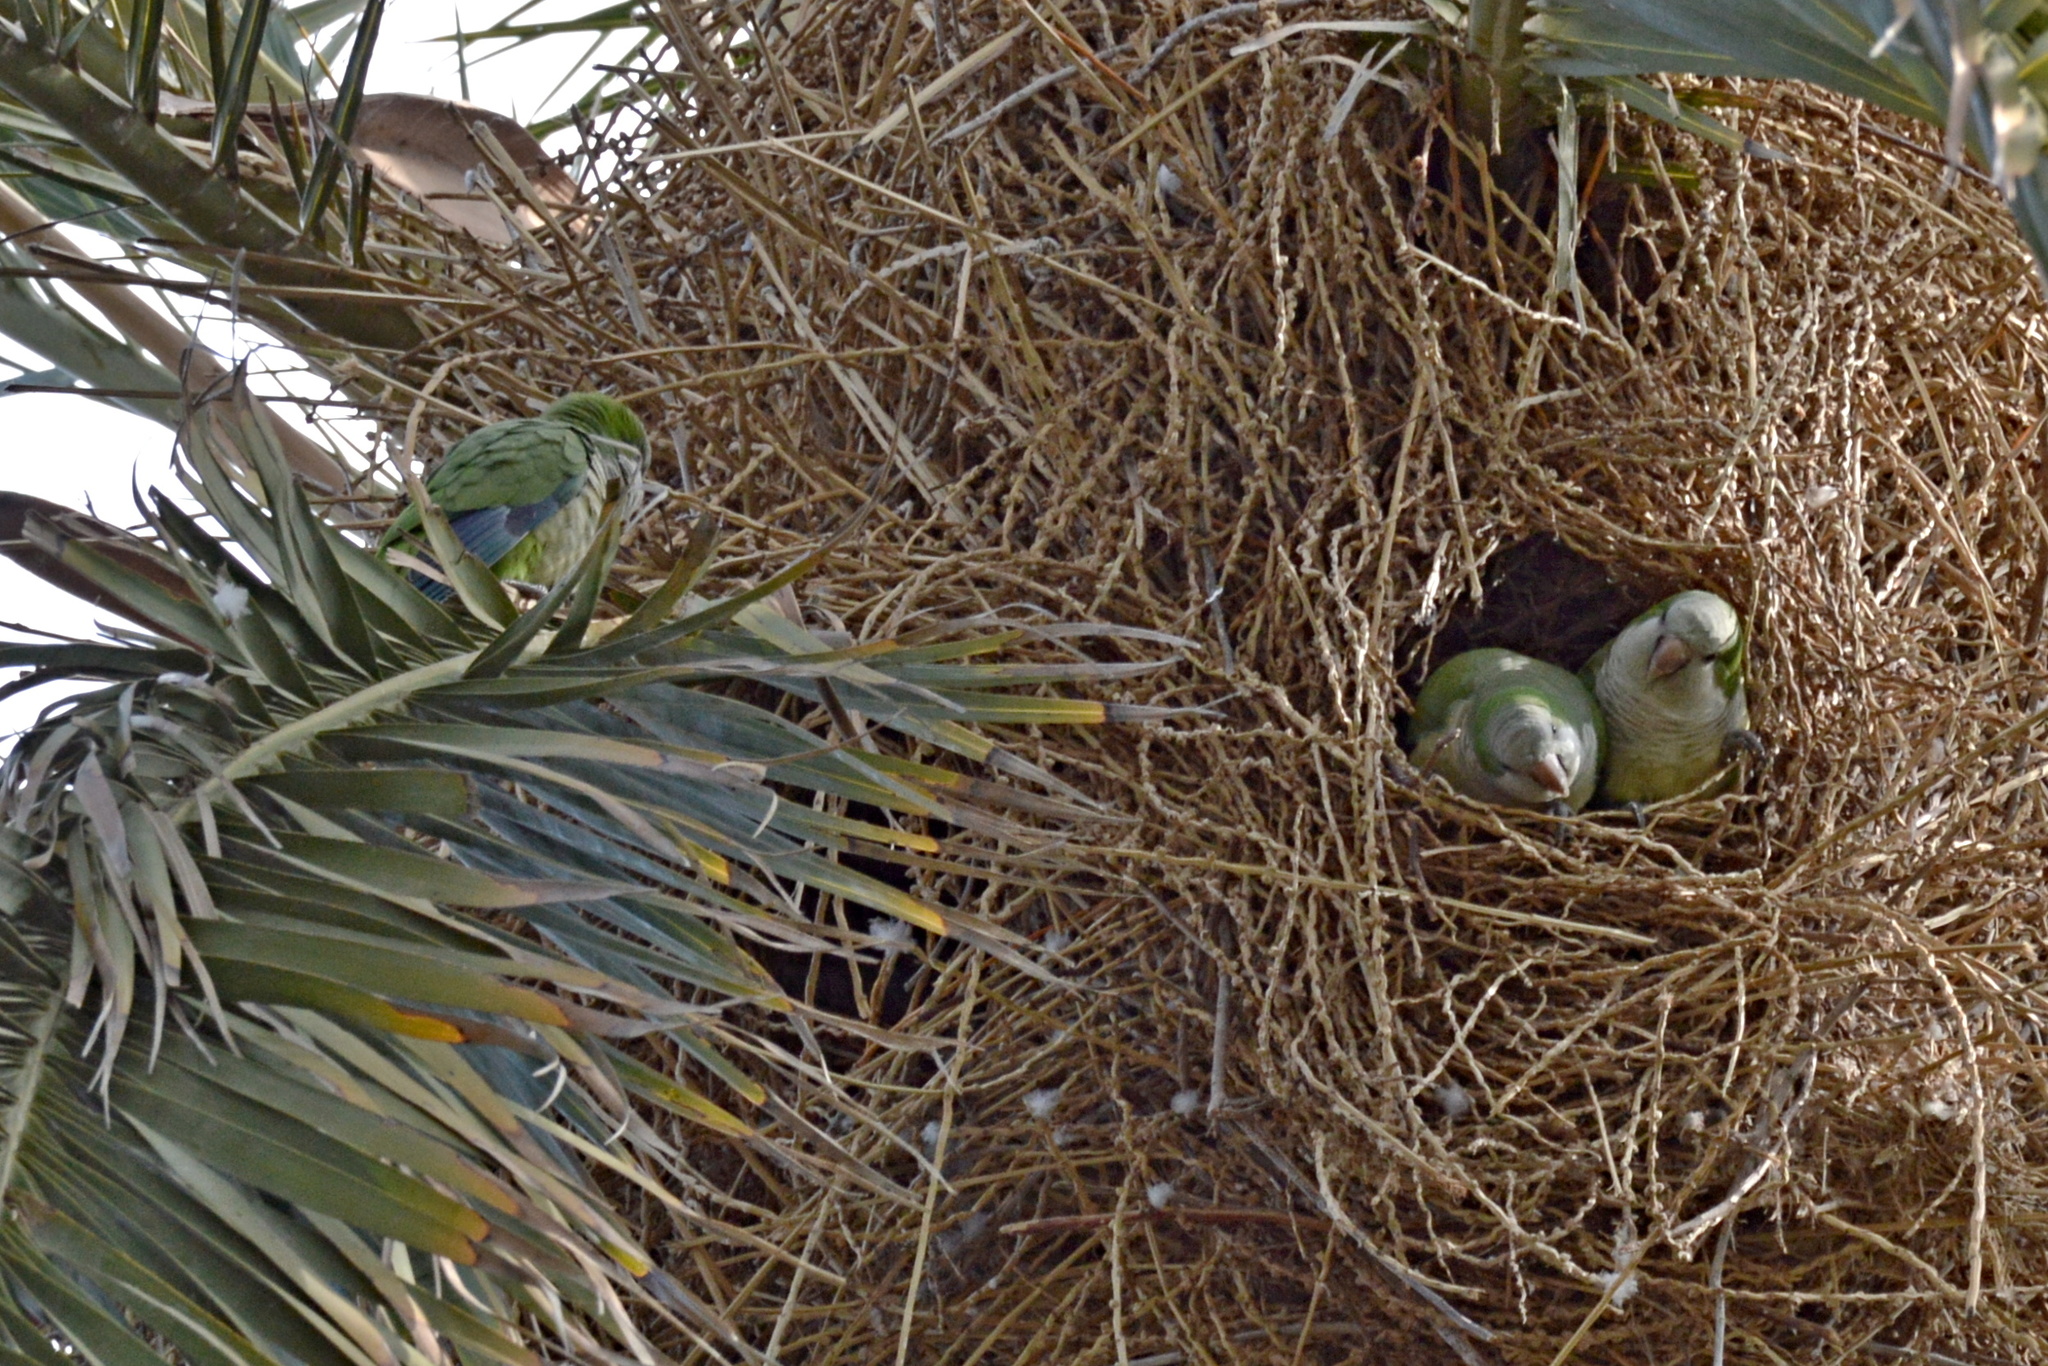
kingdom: Animalia
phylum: Chordata
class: Aves
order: Psittaciformes
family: Psittacidae
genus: Myiopsitta
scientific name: Myiopsitta monachus
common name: Monk parakeet
